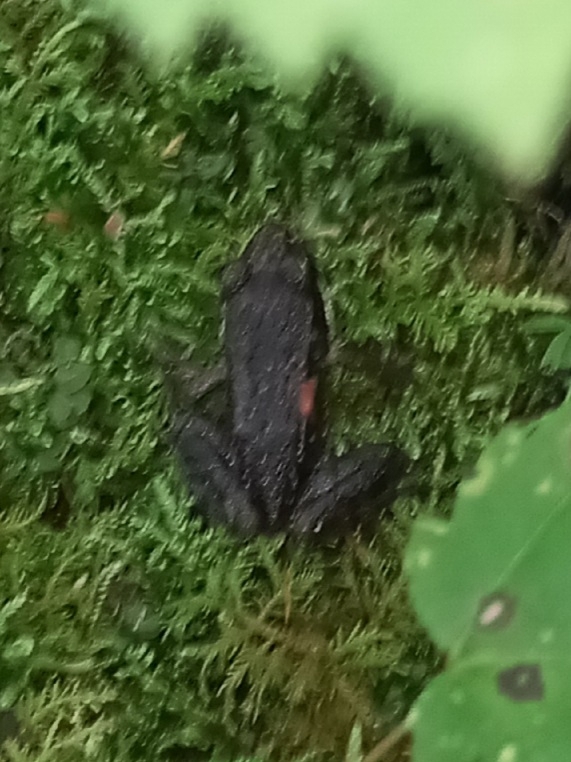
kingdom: Animalia
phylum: Chordata
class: Amphibia
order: Anura
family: Ranidae
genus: Lithobates
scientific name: Lithobates sylvaticus
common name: Wood frog
